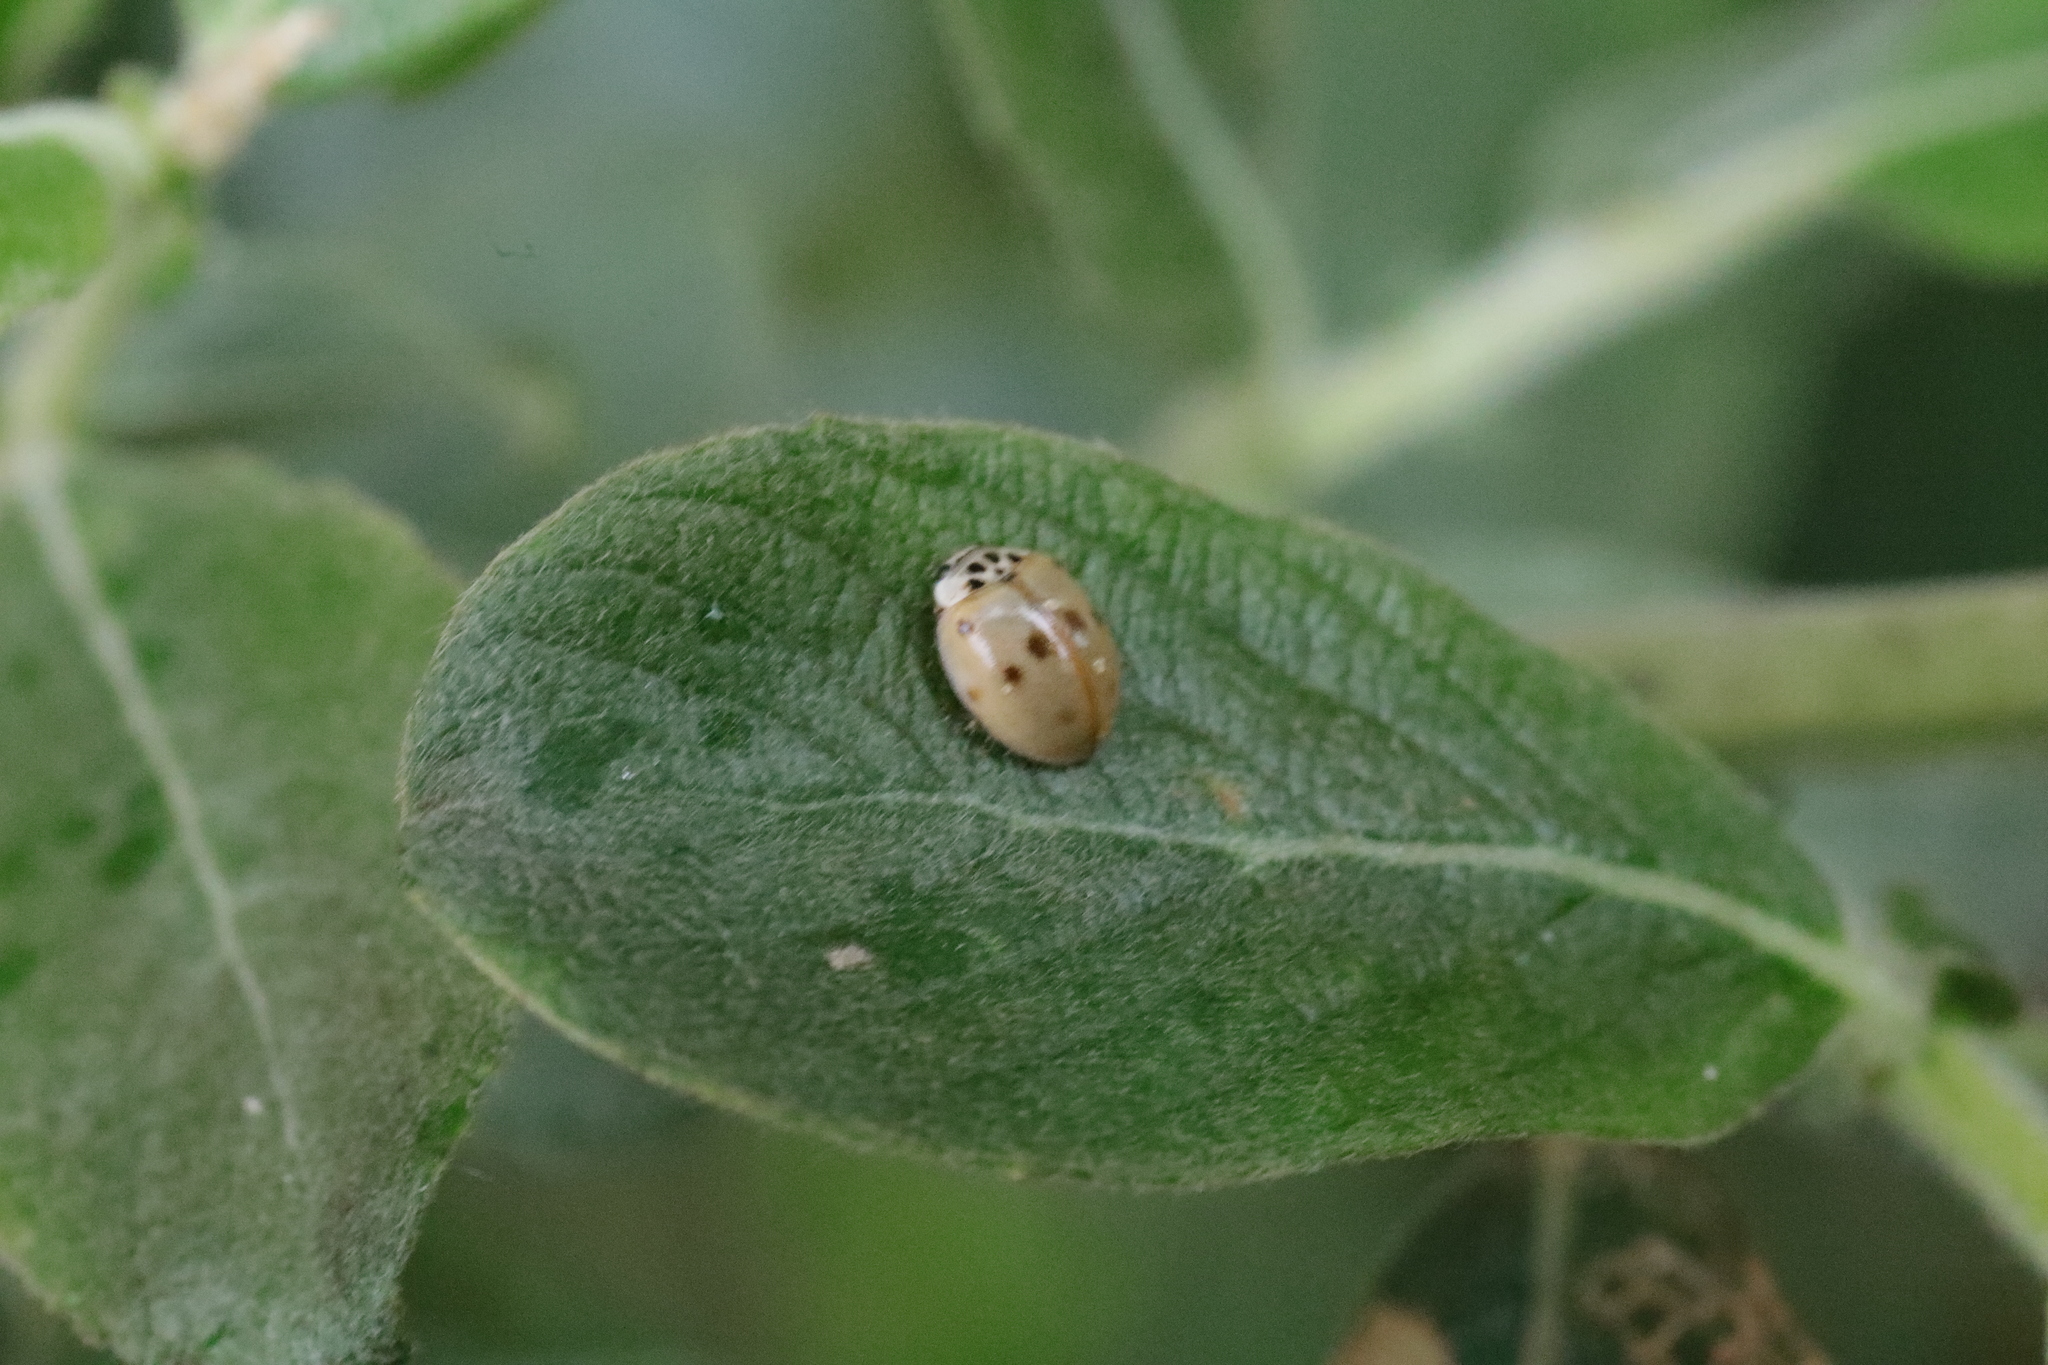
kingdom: Animalia
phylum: Arthropoda
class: Insecta
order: Coleoptera
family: Coccinellidae
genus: Adalia
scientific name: Adalia decempunctata
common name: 10-spot ladybird
